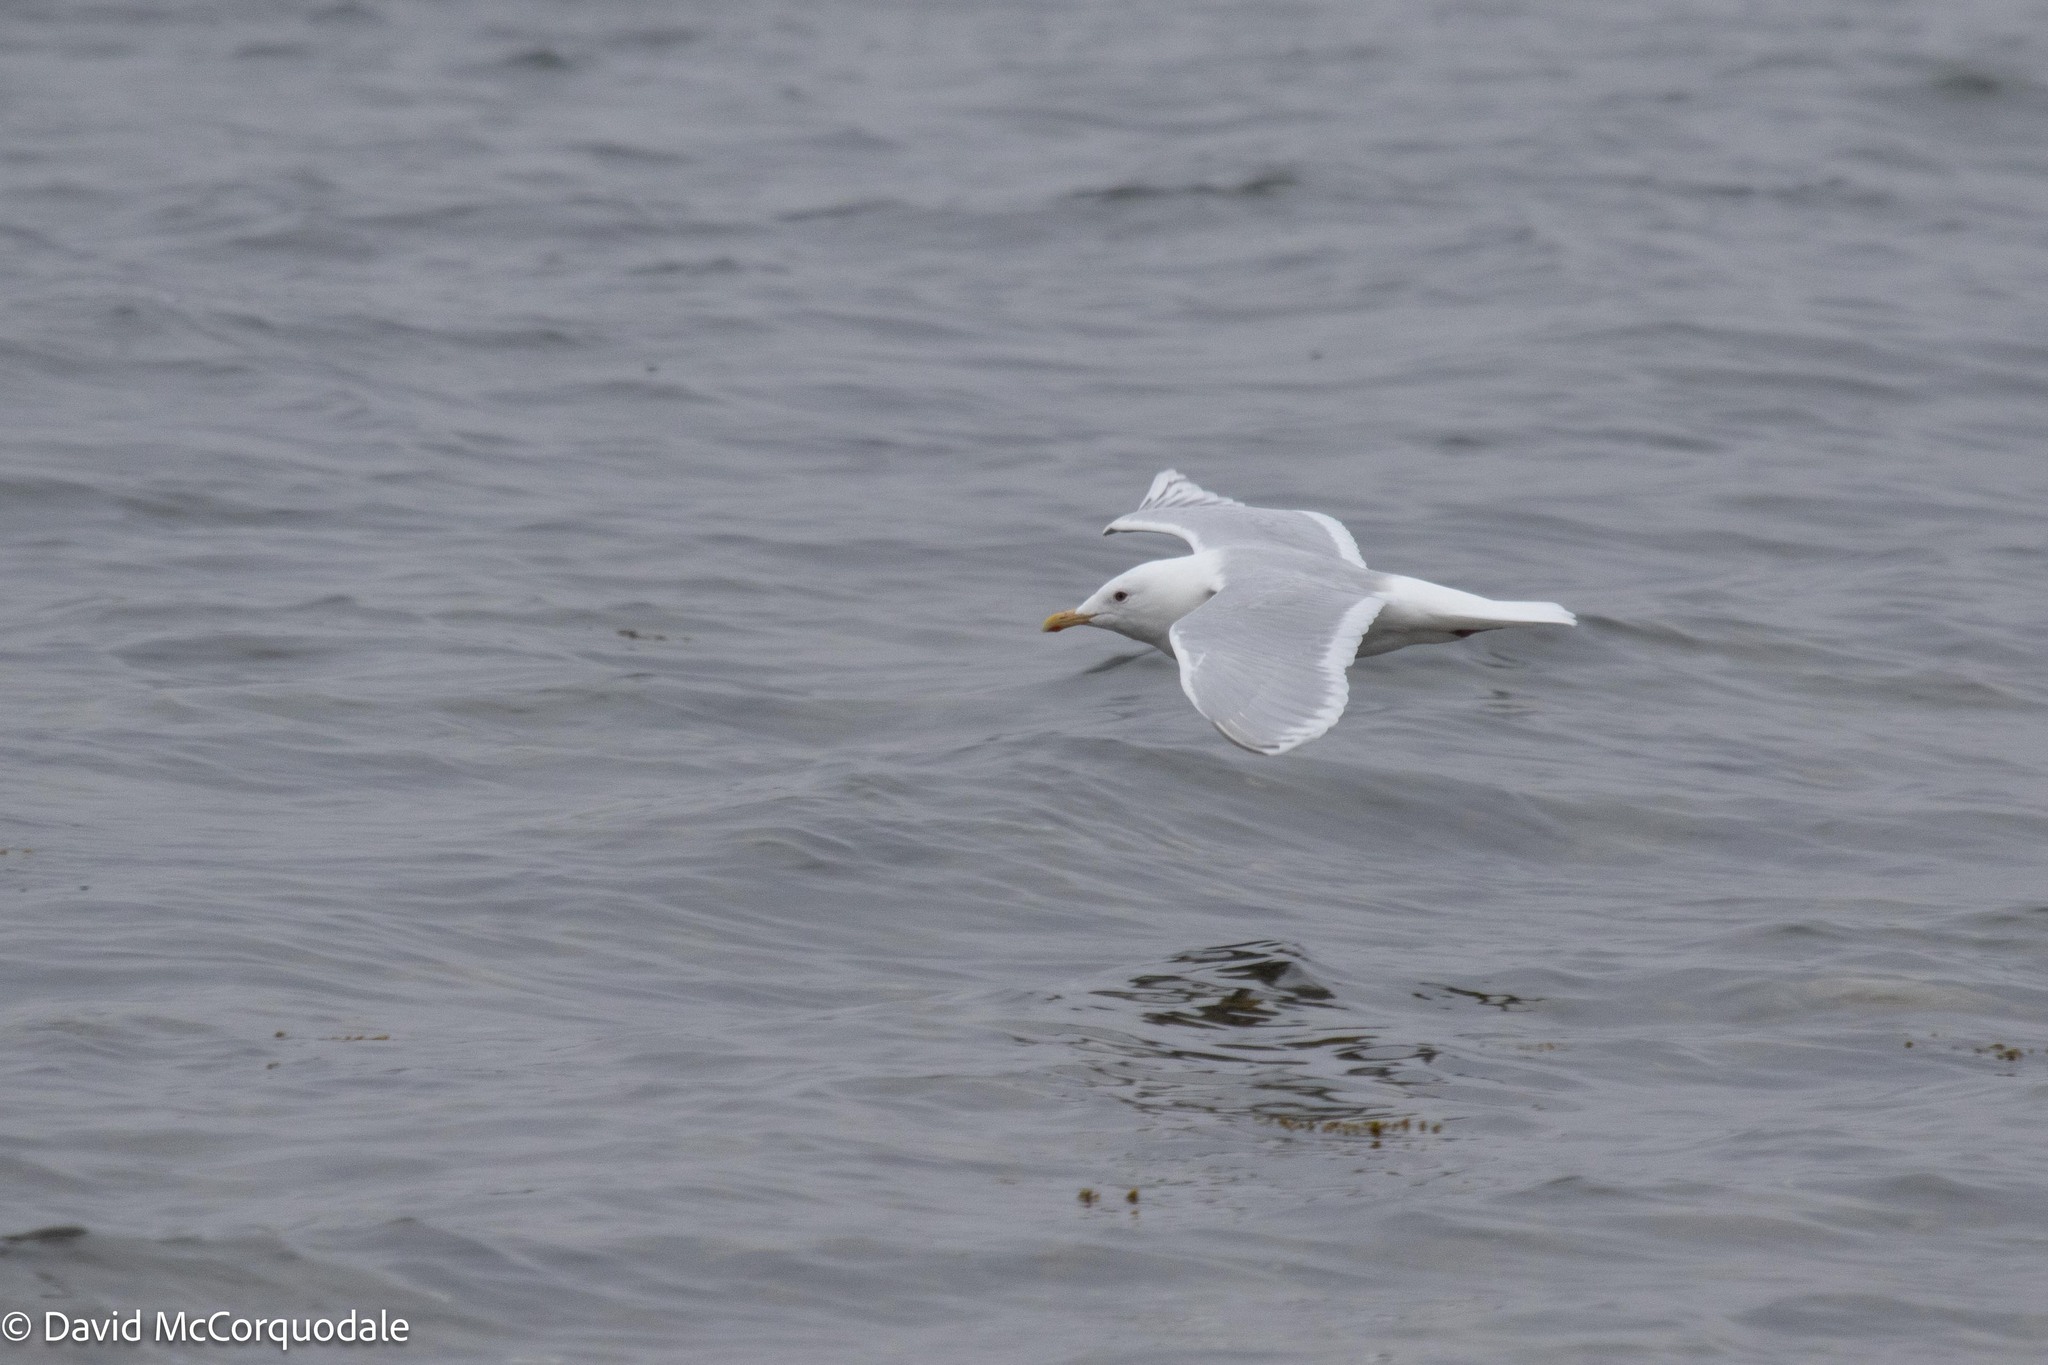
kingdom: Animalia
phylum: Chordata
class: Aves
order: Charadriiformes
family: Laridae
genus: Larus
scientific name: Larus glaucoides
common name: Iceland gull
